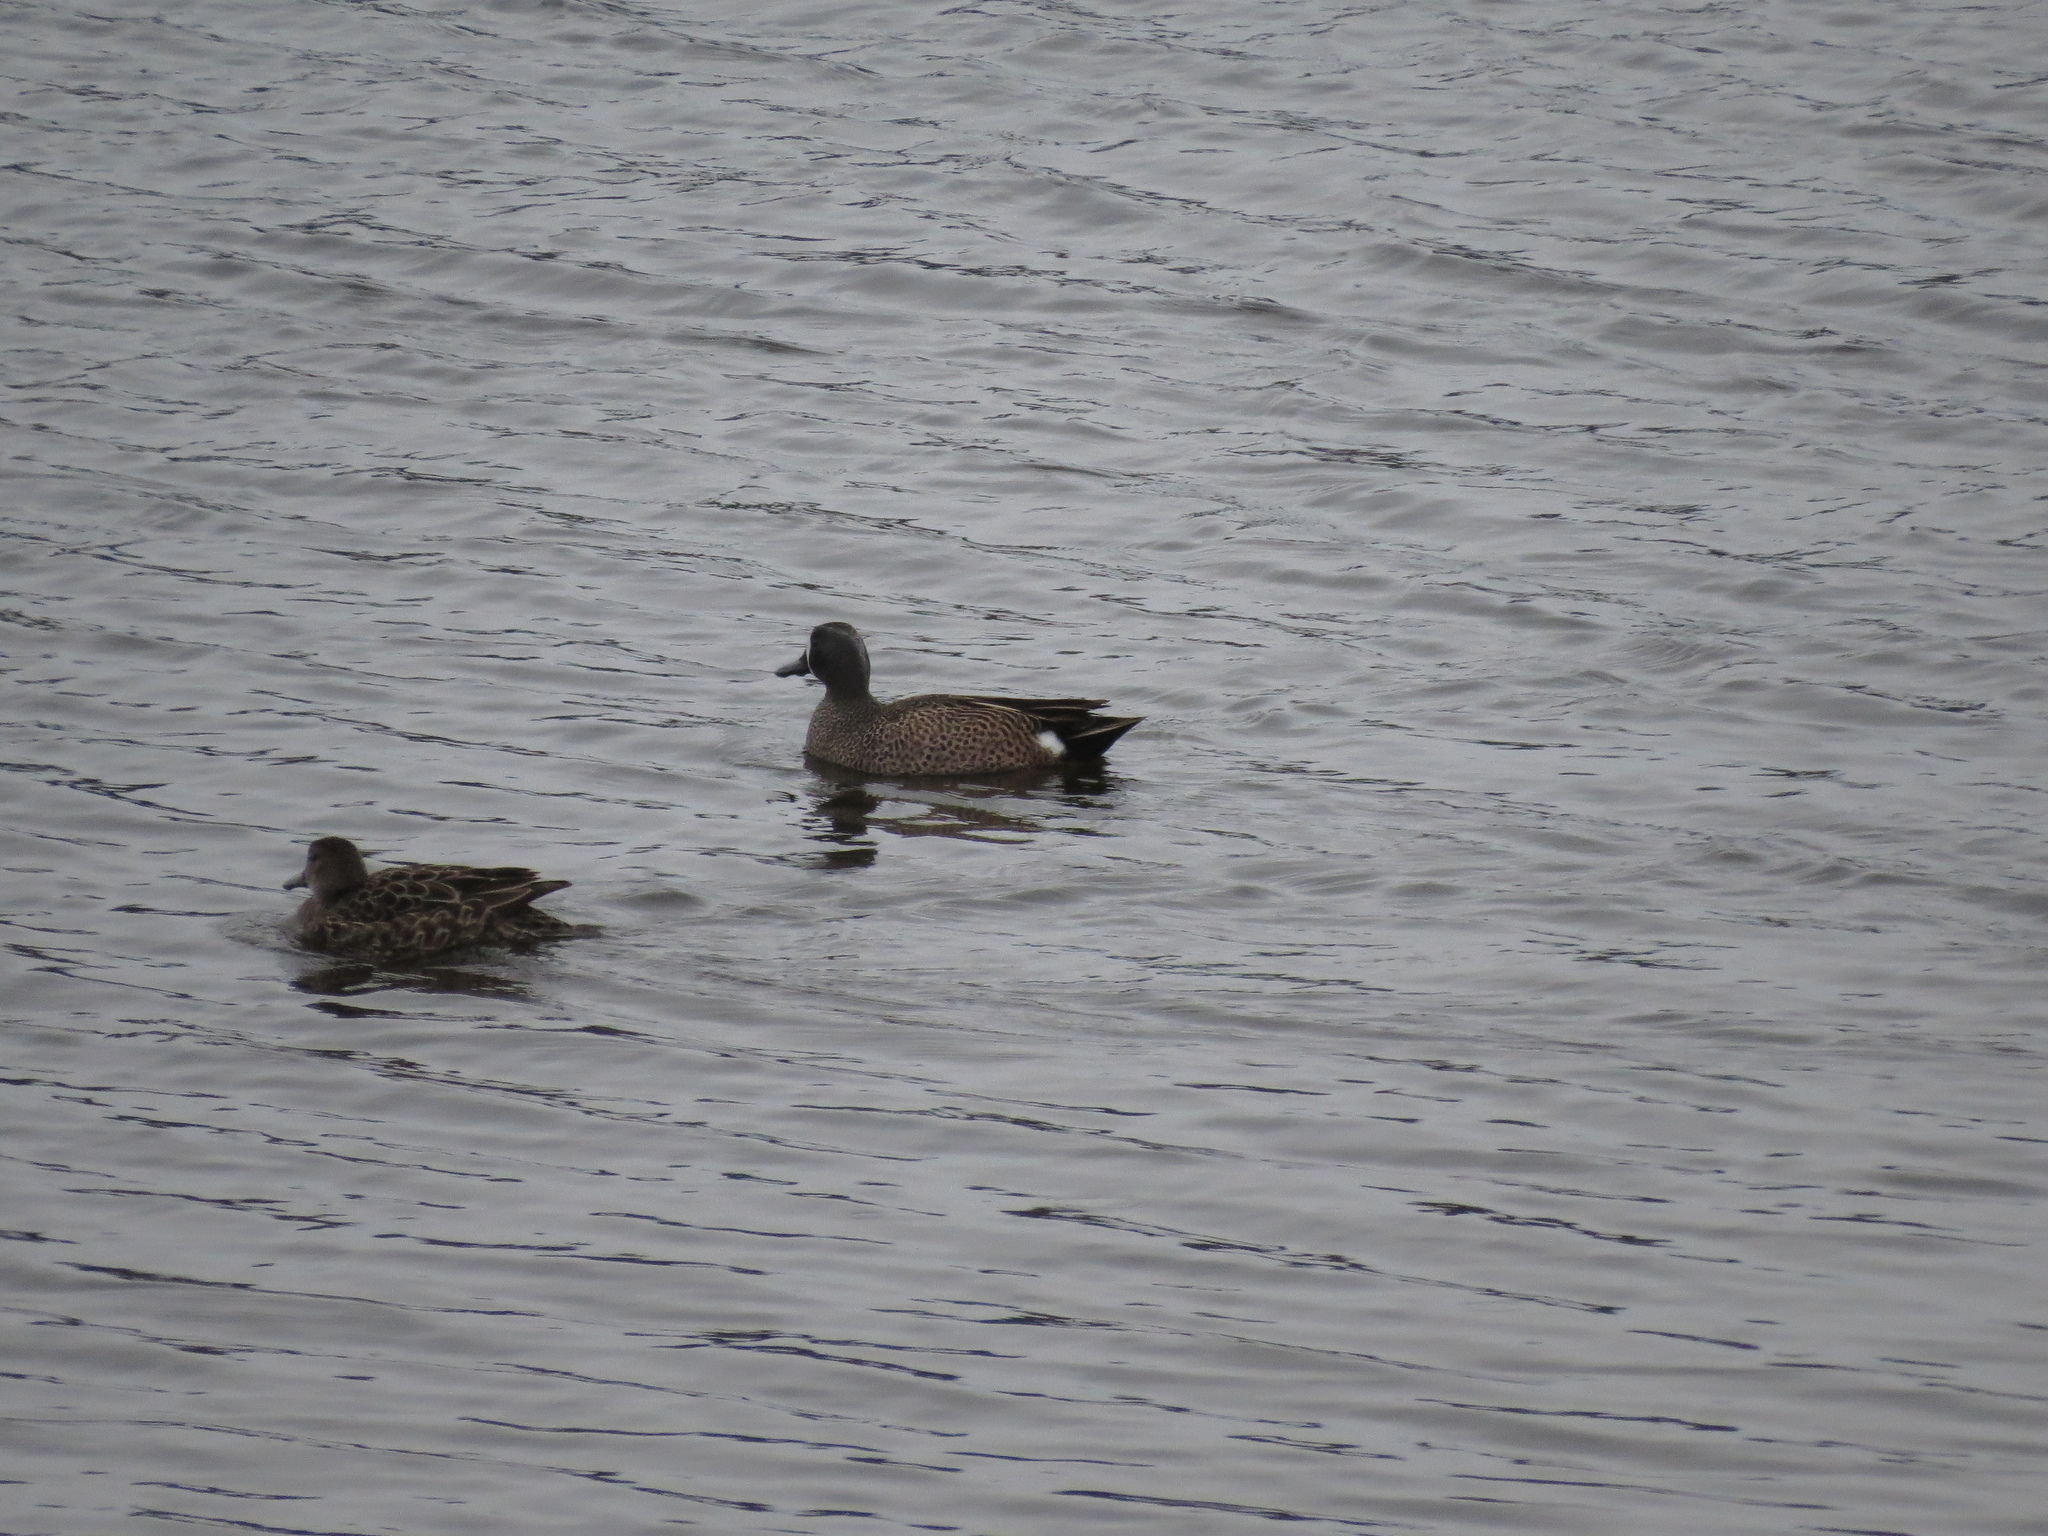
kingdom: Animalia
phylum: Chordata
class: Aves
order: Anseriformes
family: Anatidae
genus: Spatula
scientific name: Spatula discors
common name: Blue-winged teal
